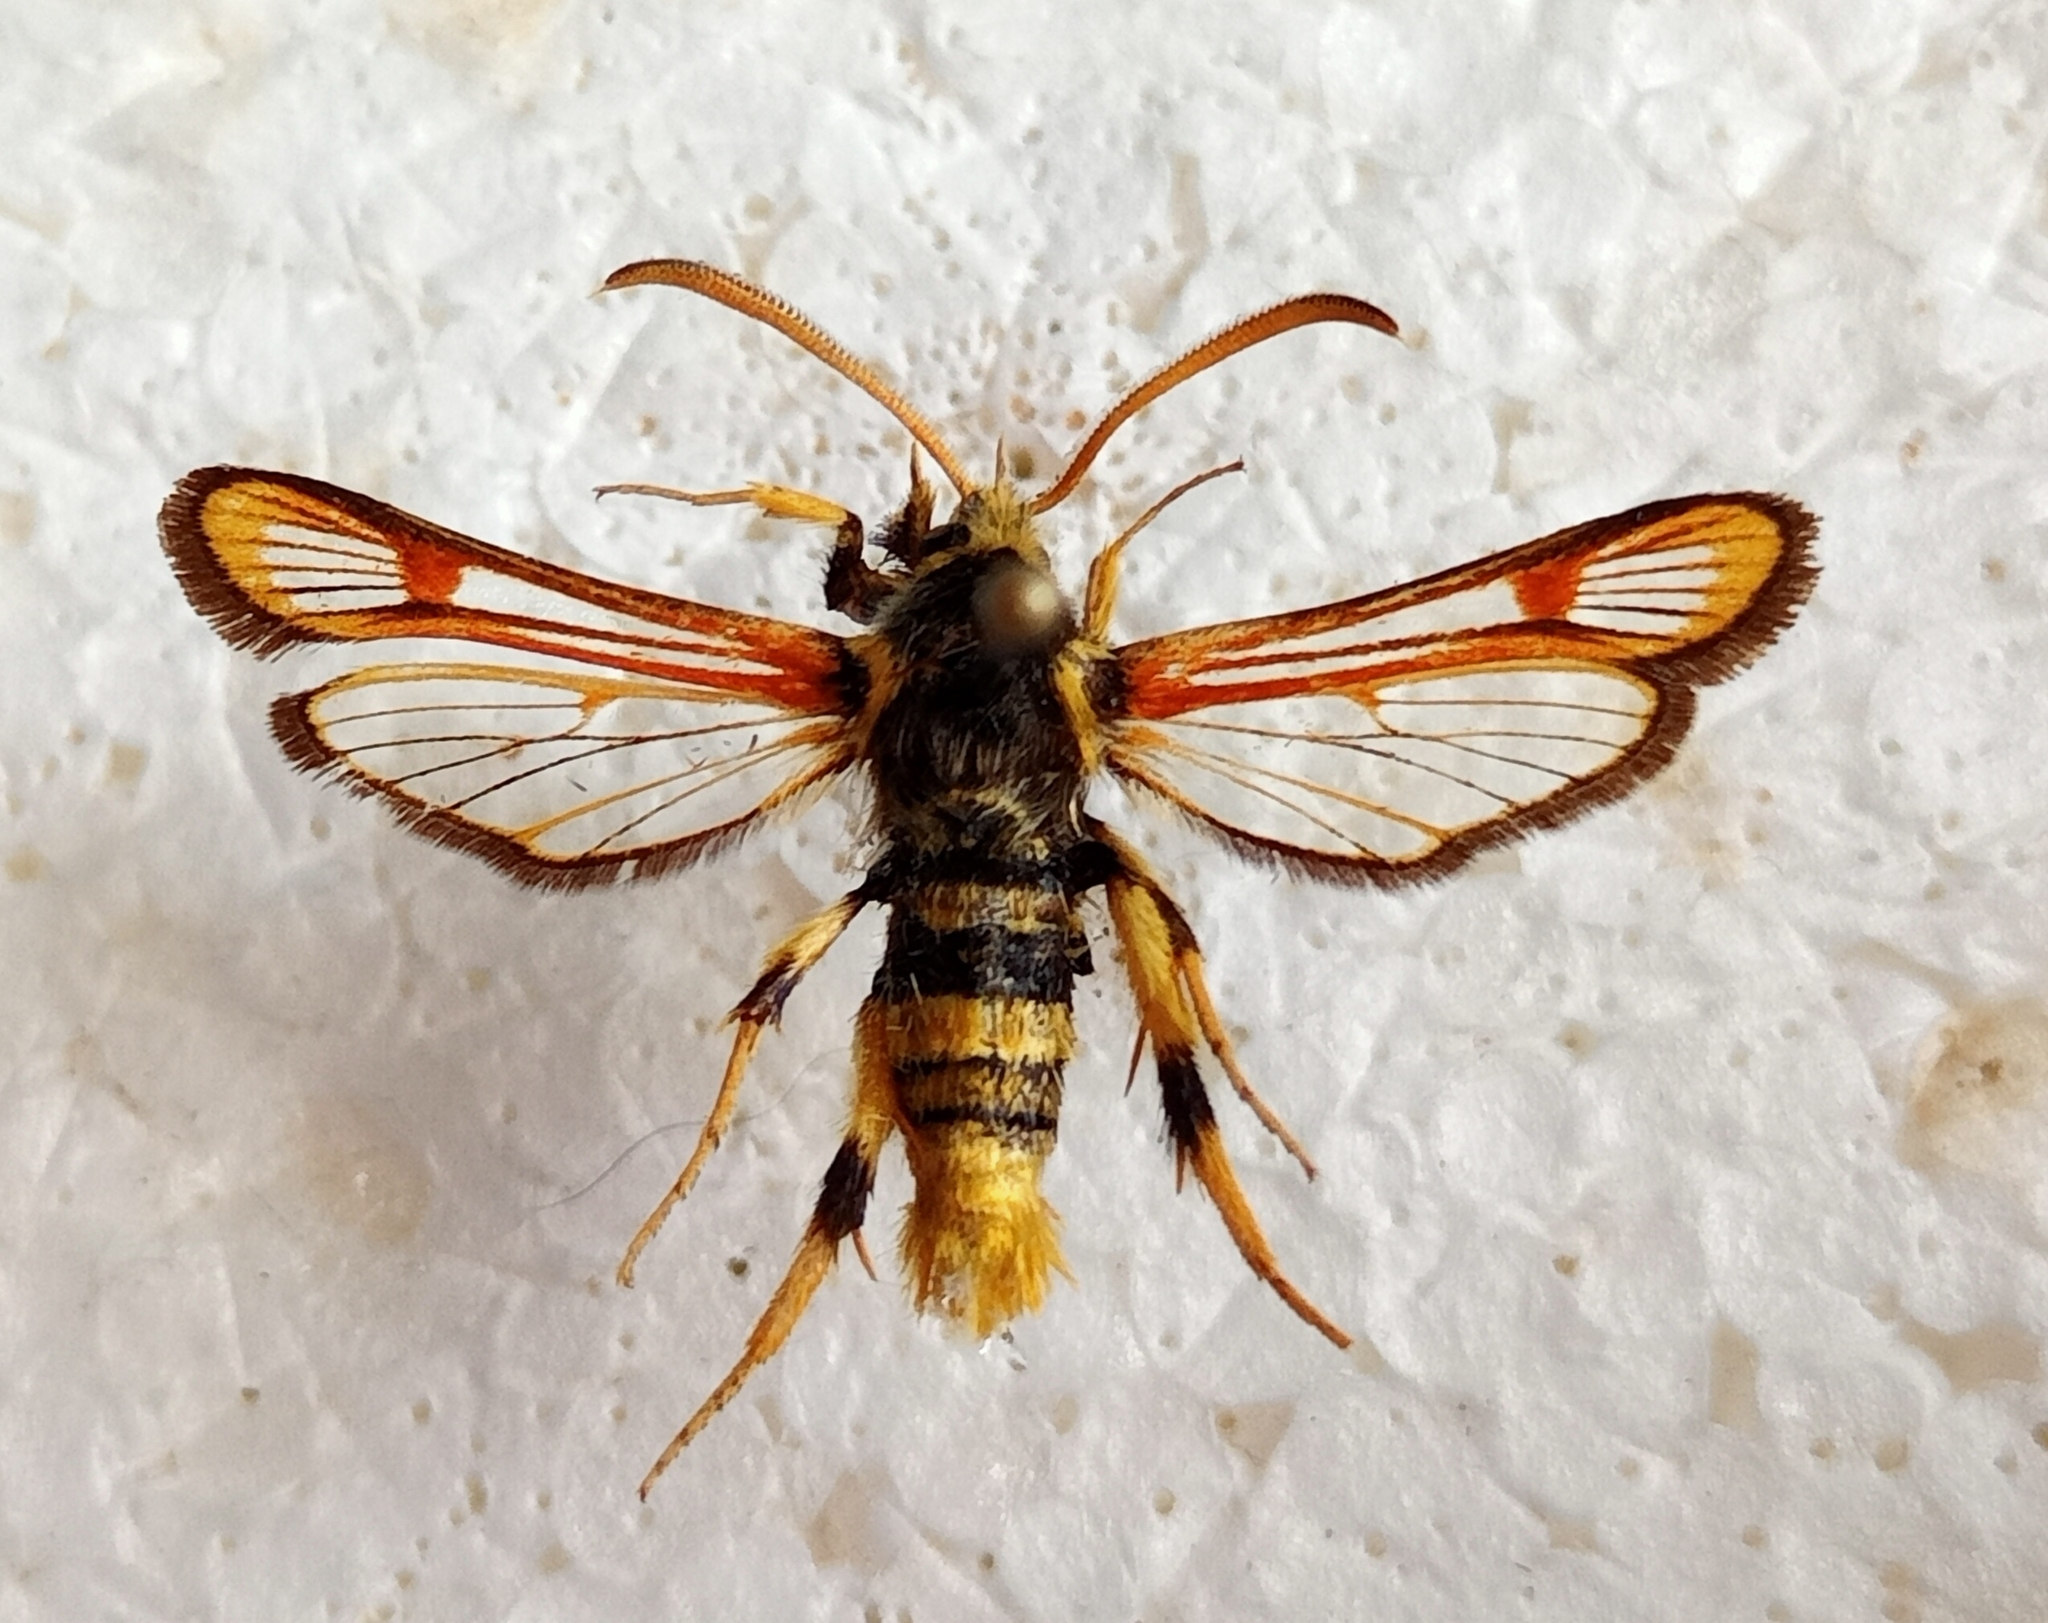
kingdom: Animalia
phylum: Arthropoda
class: Insecta
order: Lepidoptera
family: Sesiidae
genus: Bembecia
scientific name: Bembecia transcaucasicum
